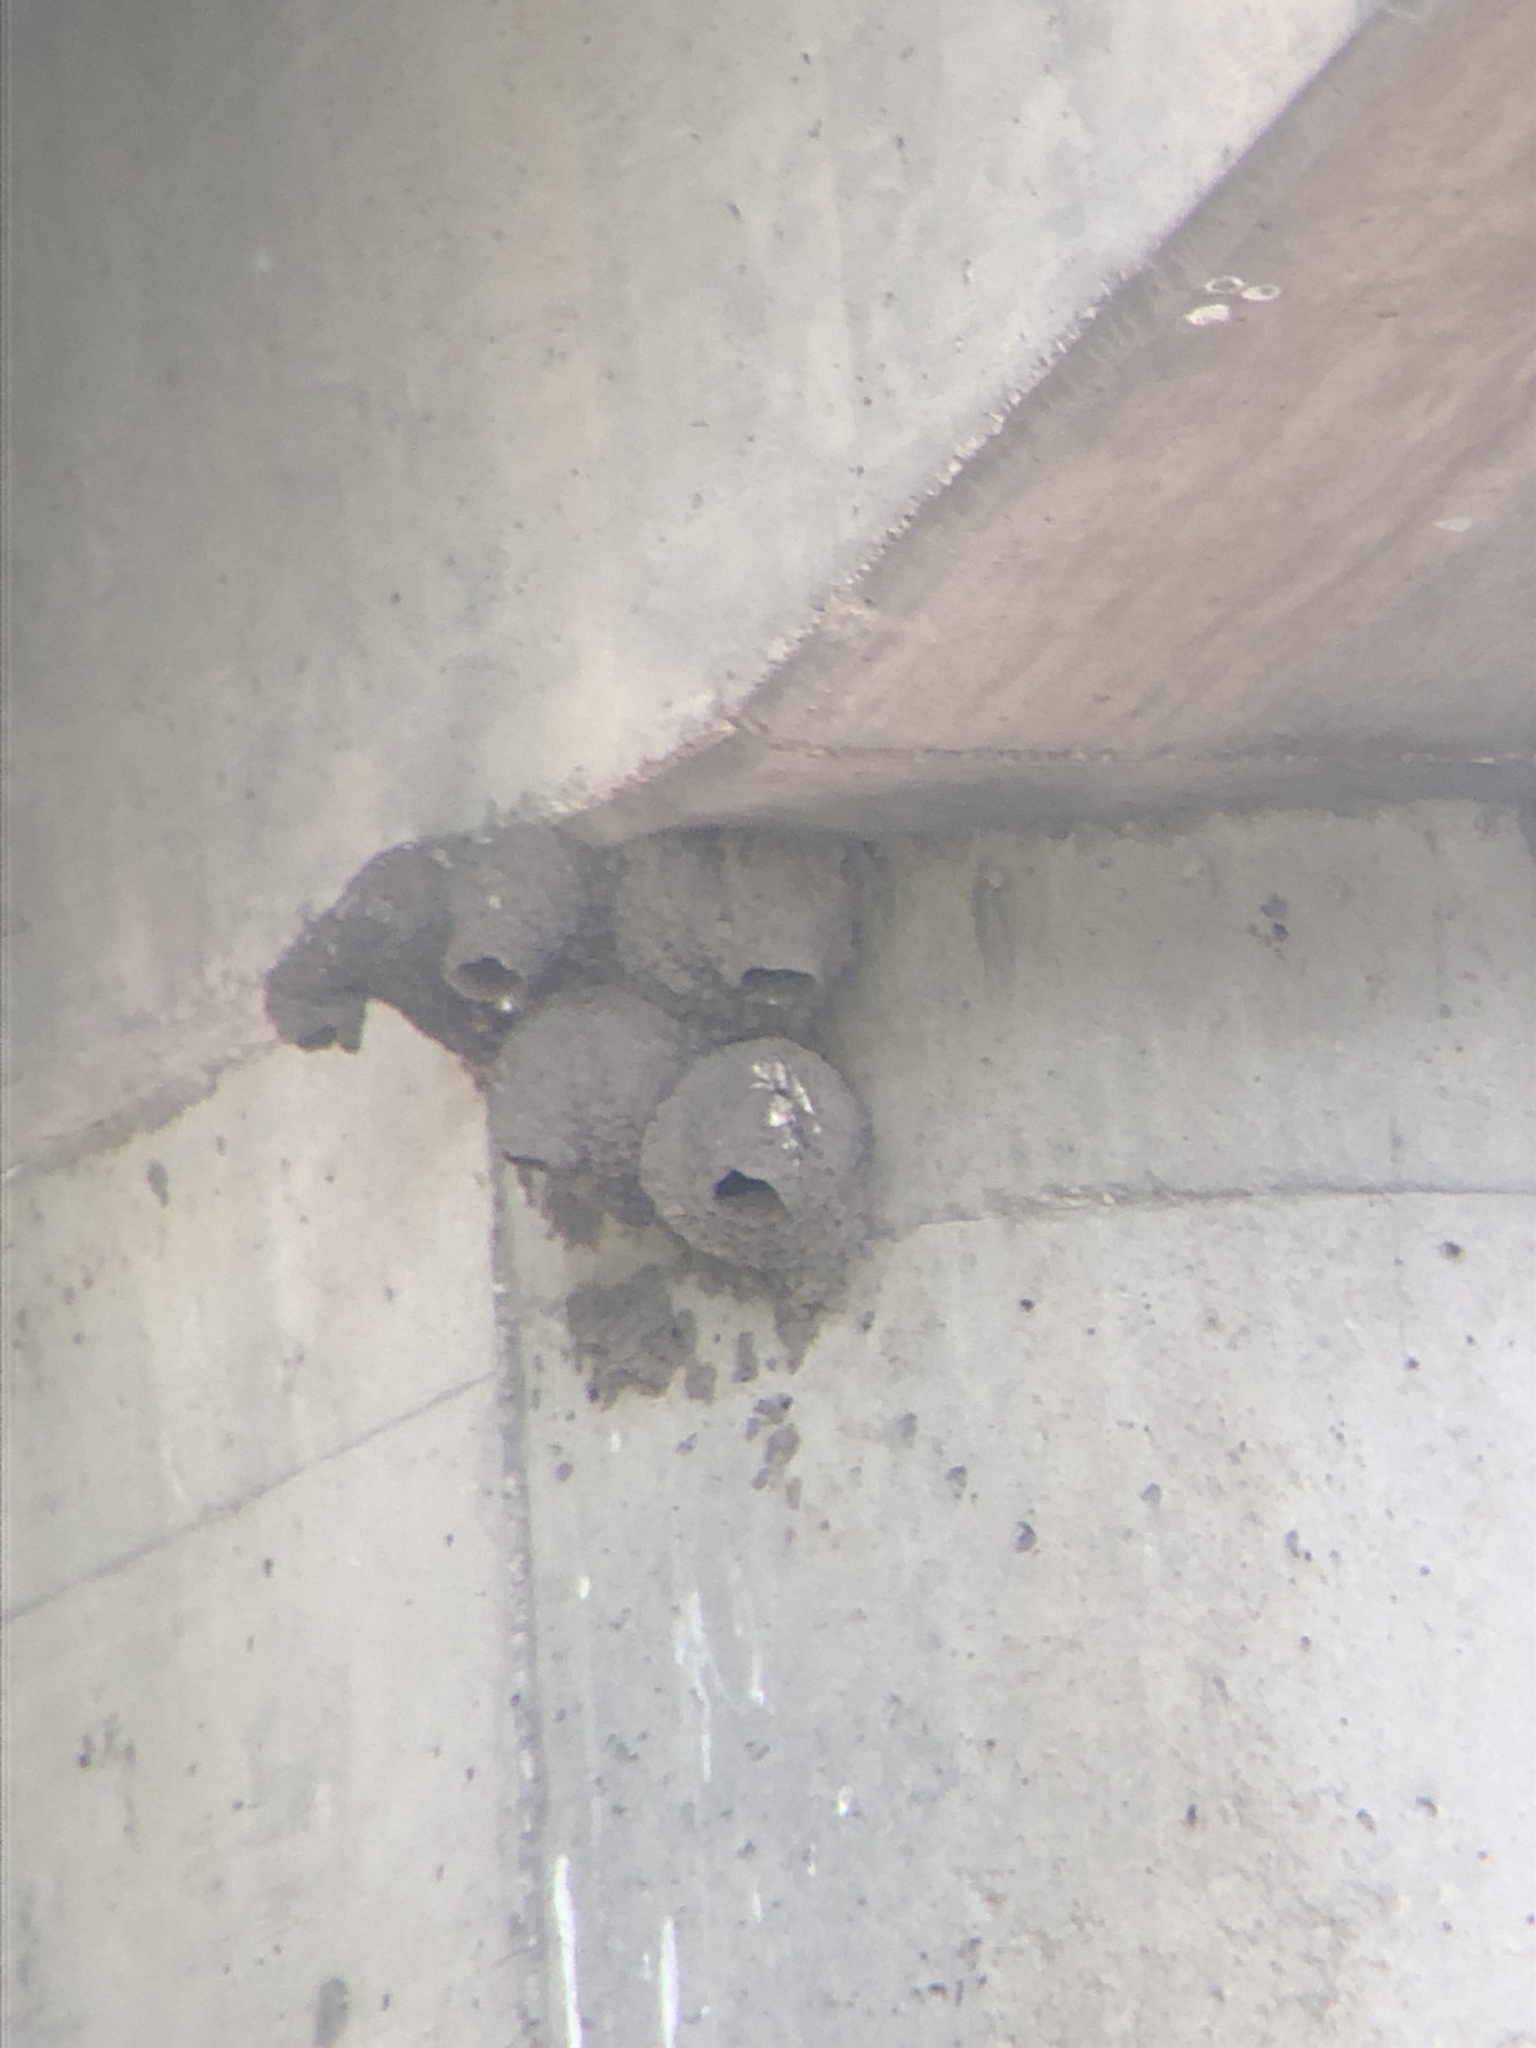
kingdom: Animalia
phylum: Chordata
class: Aves
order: Passeriformes
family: Hirundinidae
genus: Petrochelidon
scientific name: Petrochelidon pyrrhonota
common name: American cliff swallow
